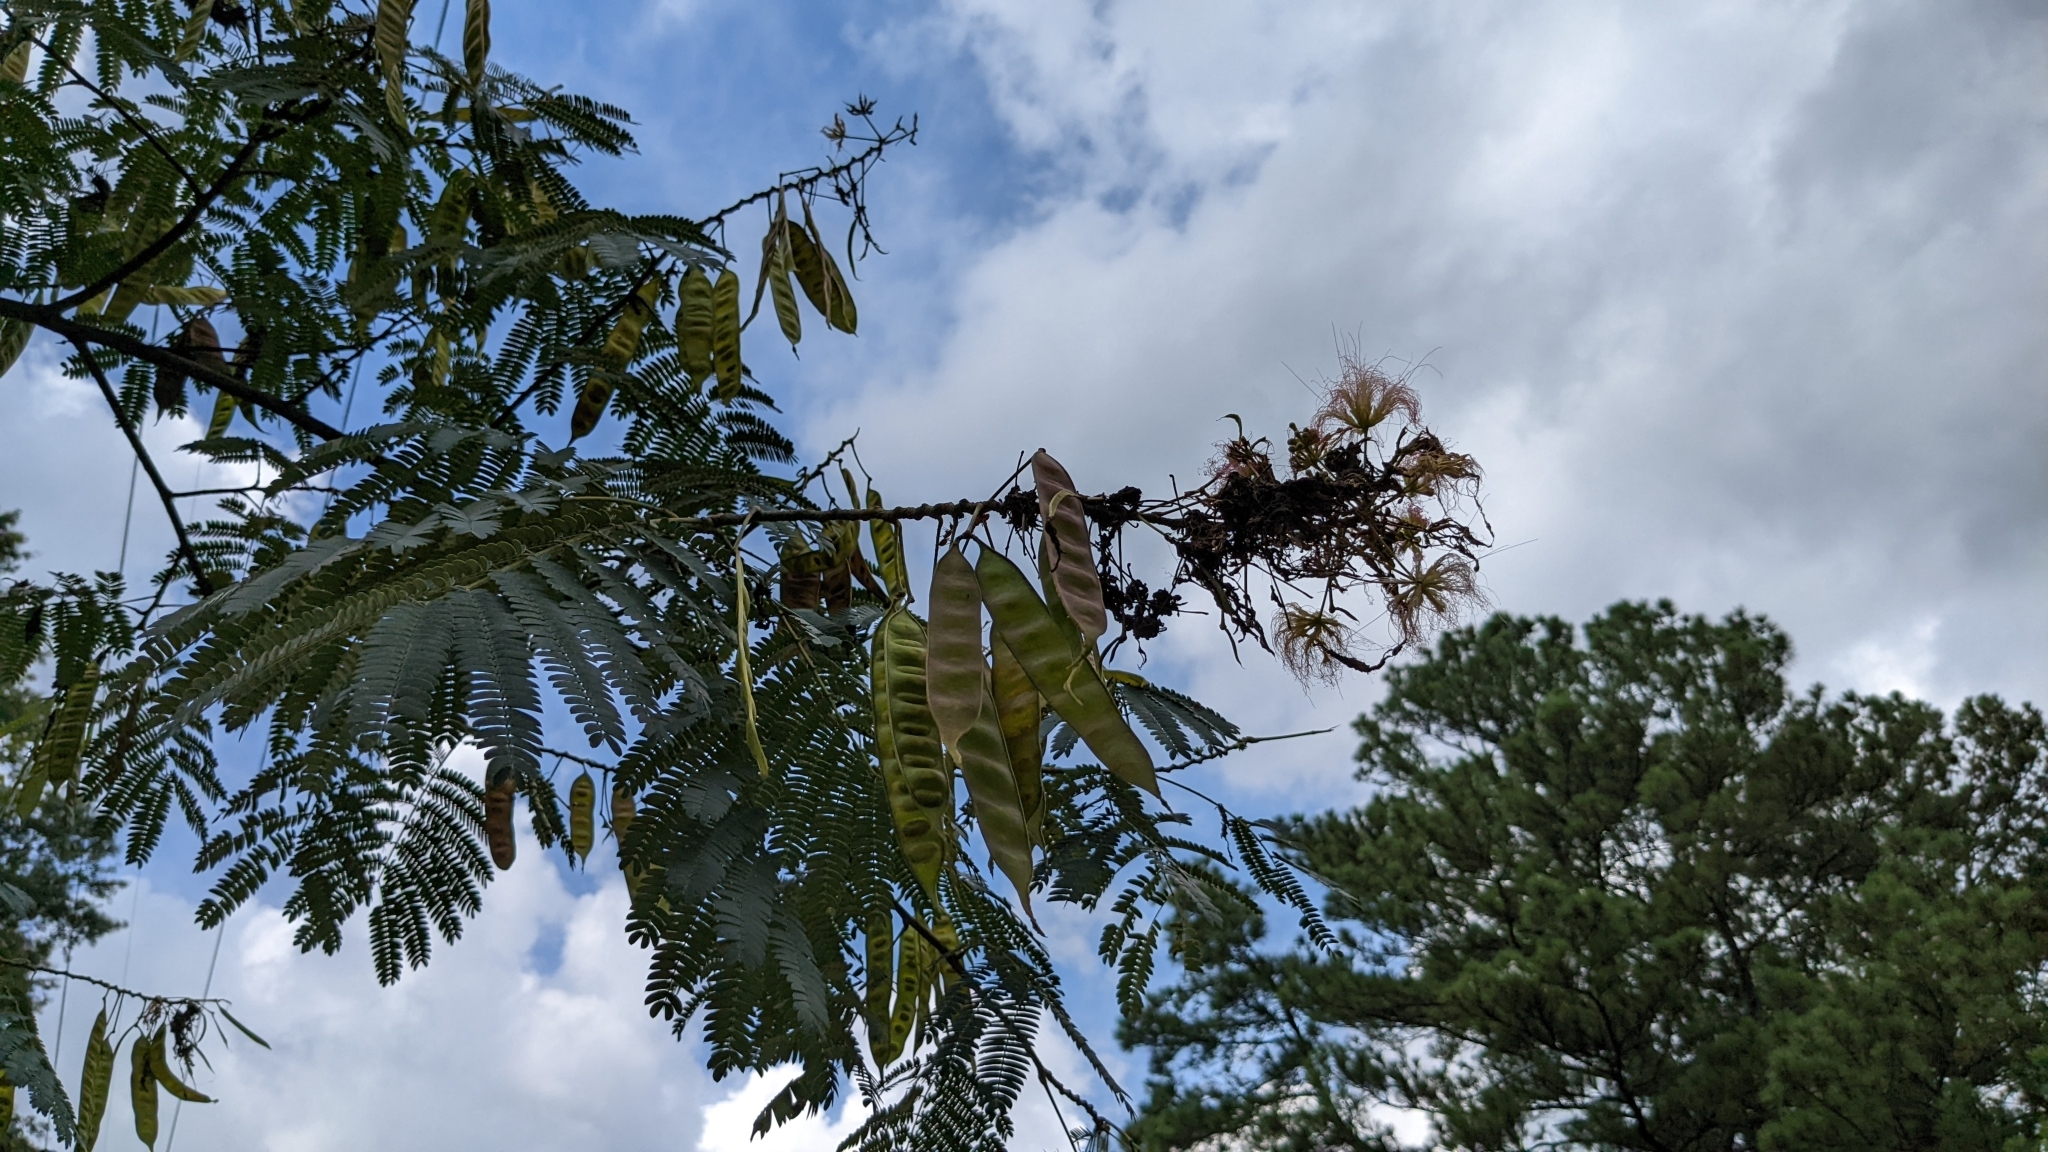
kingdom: Plantae
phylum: Tracheophyta
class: Magnoliopsida
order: Fabales
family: Fabaceae
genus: Albizia
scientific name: Albizia julibrissin
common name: Silktree
